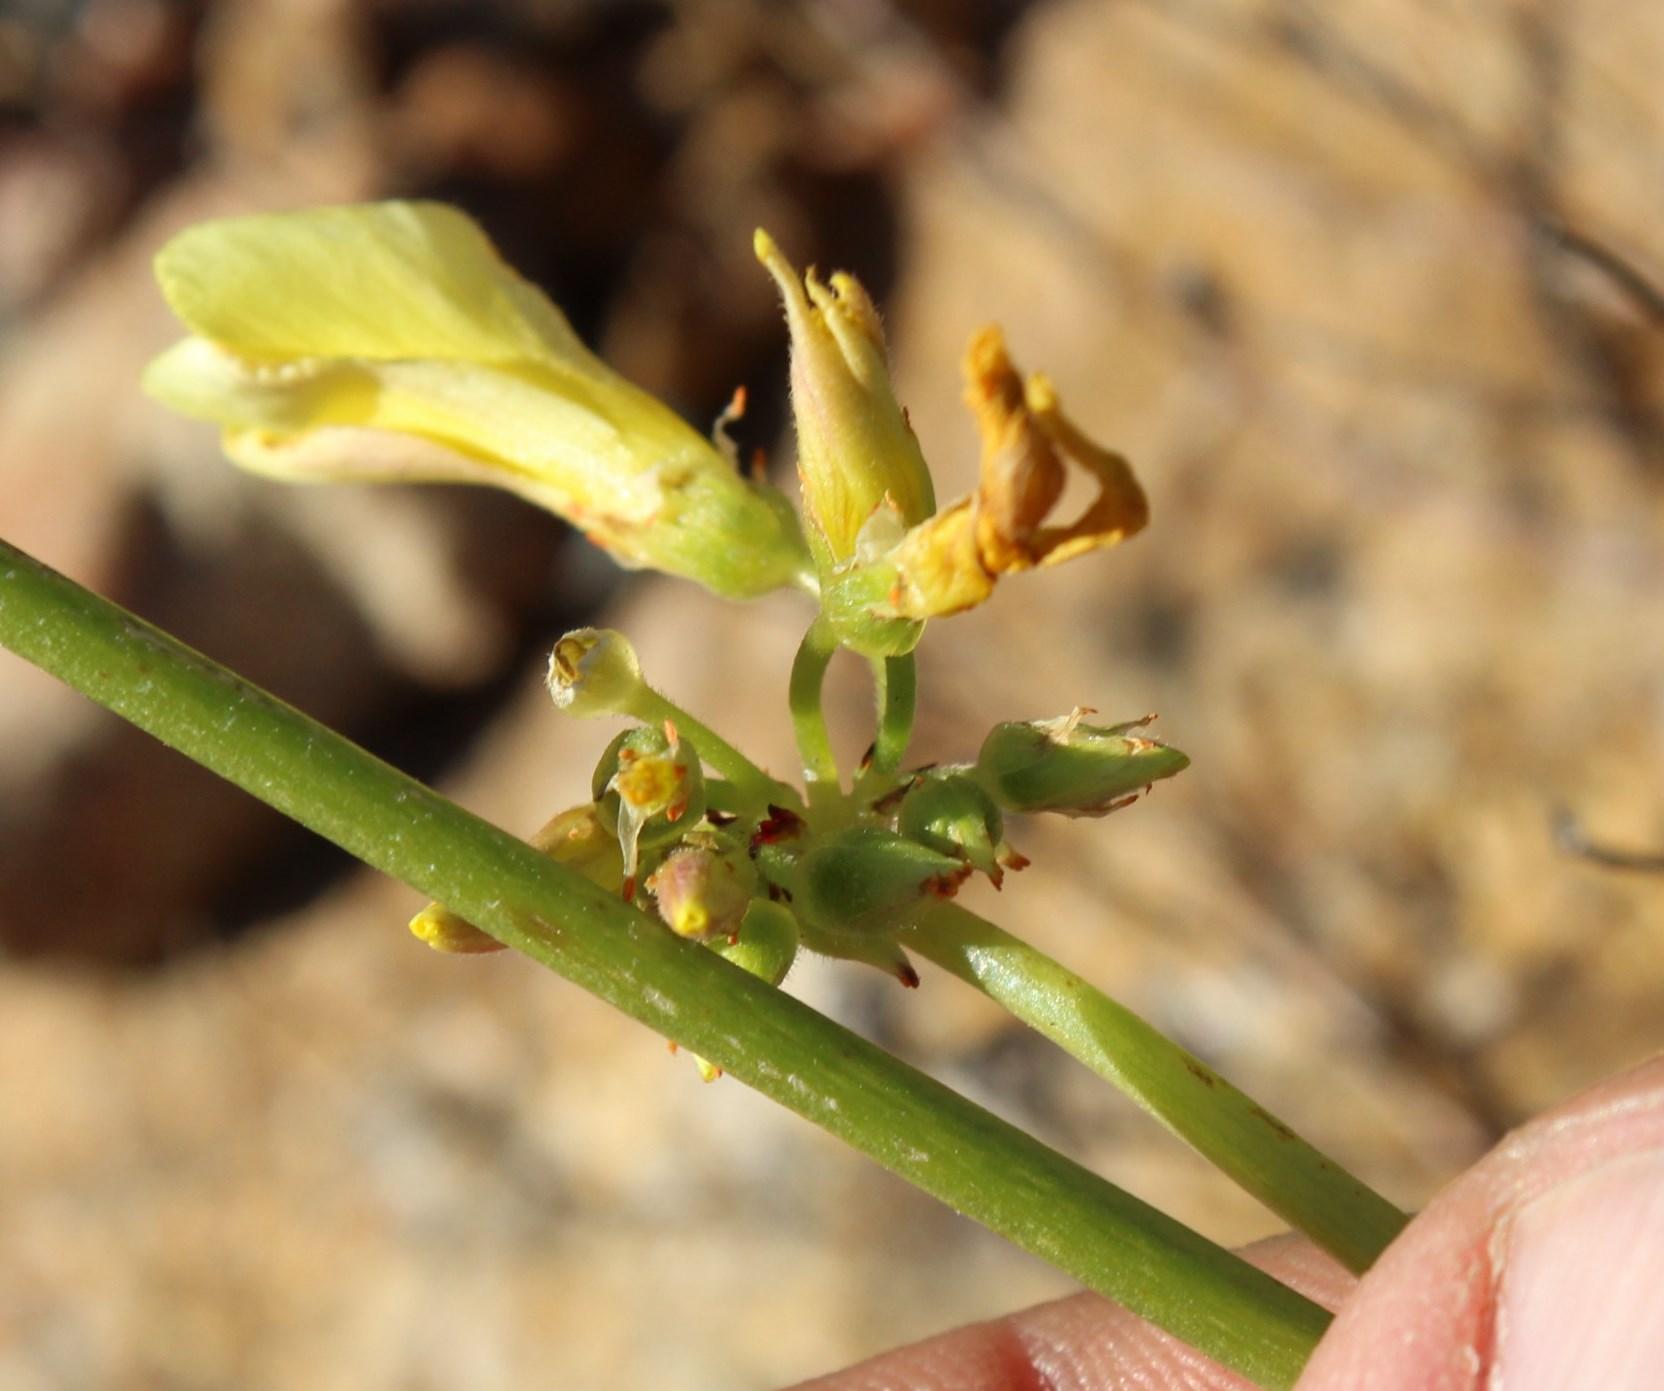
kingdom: Plantae
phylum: Tracheophyta
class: Magnoliopsida
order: Oxalidales
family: Oxalidaceae
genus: Oxalis
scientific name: Oxalis pes-caprae
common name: Bermuda-buttercup
